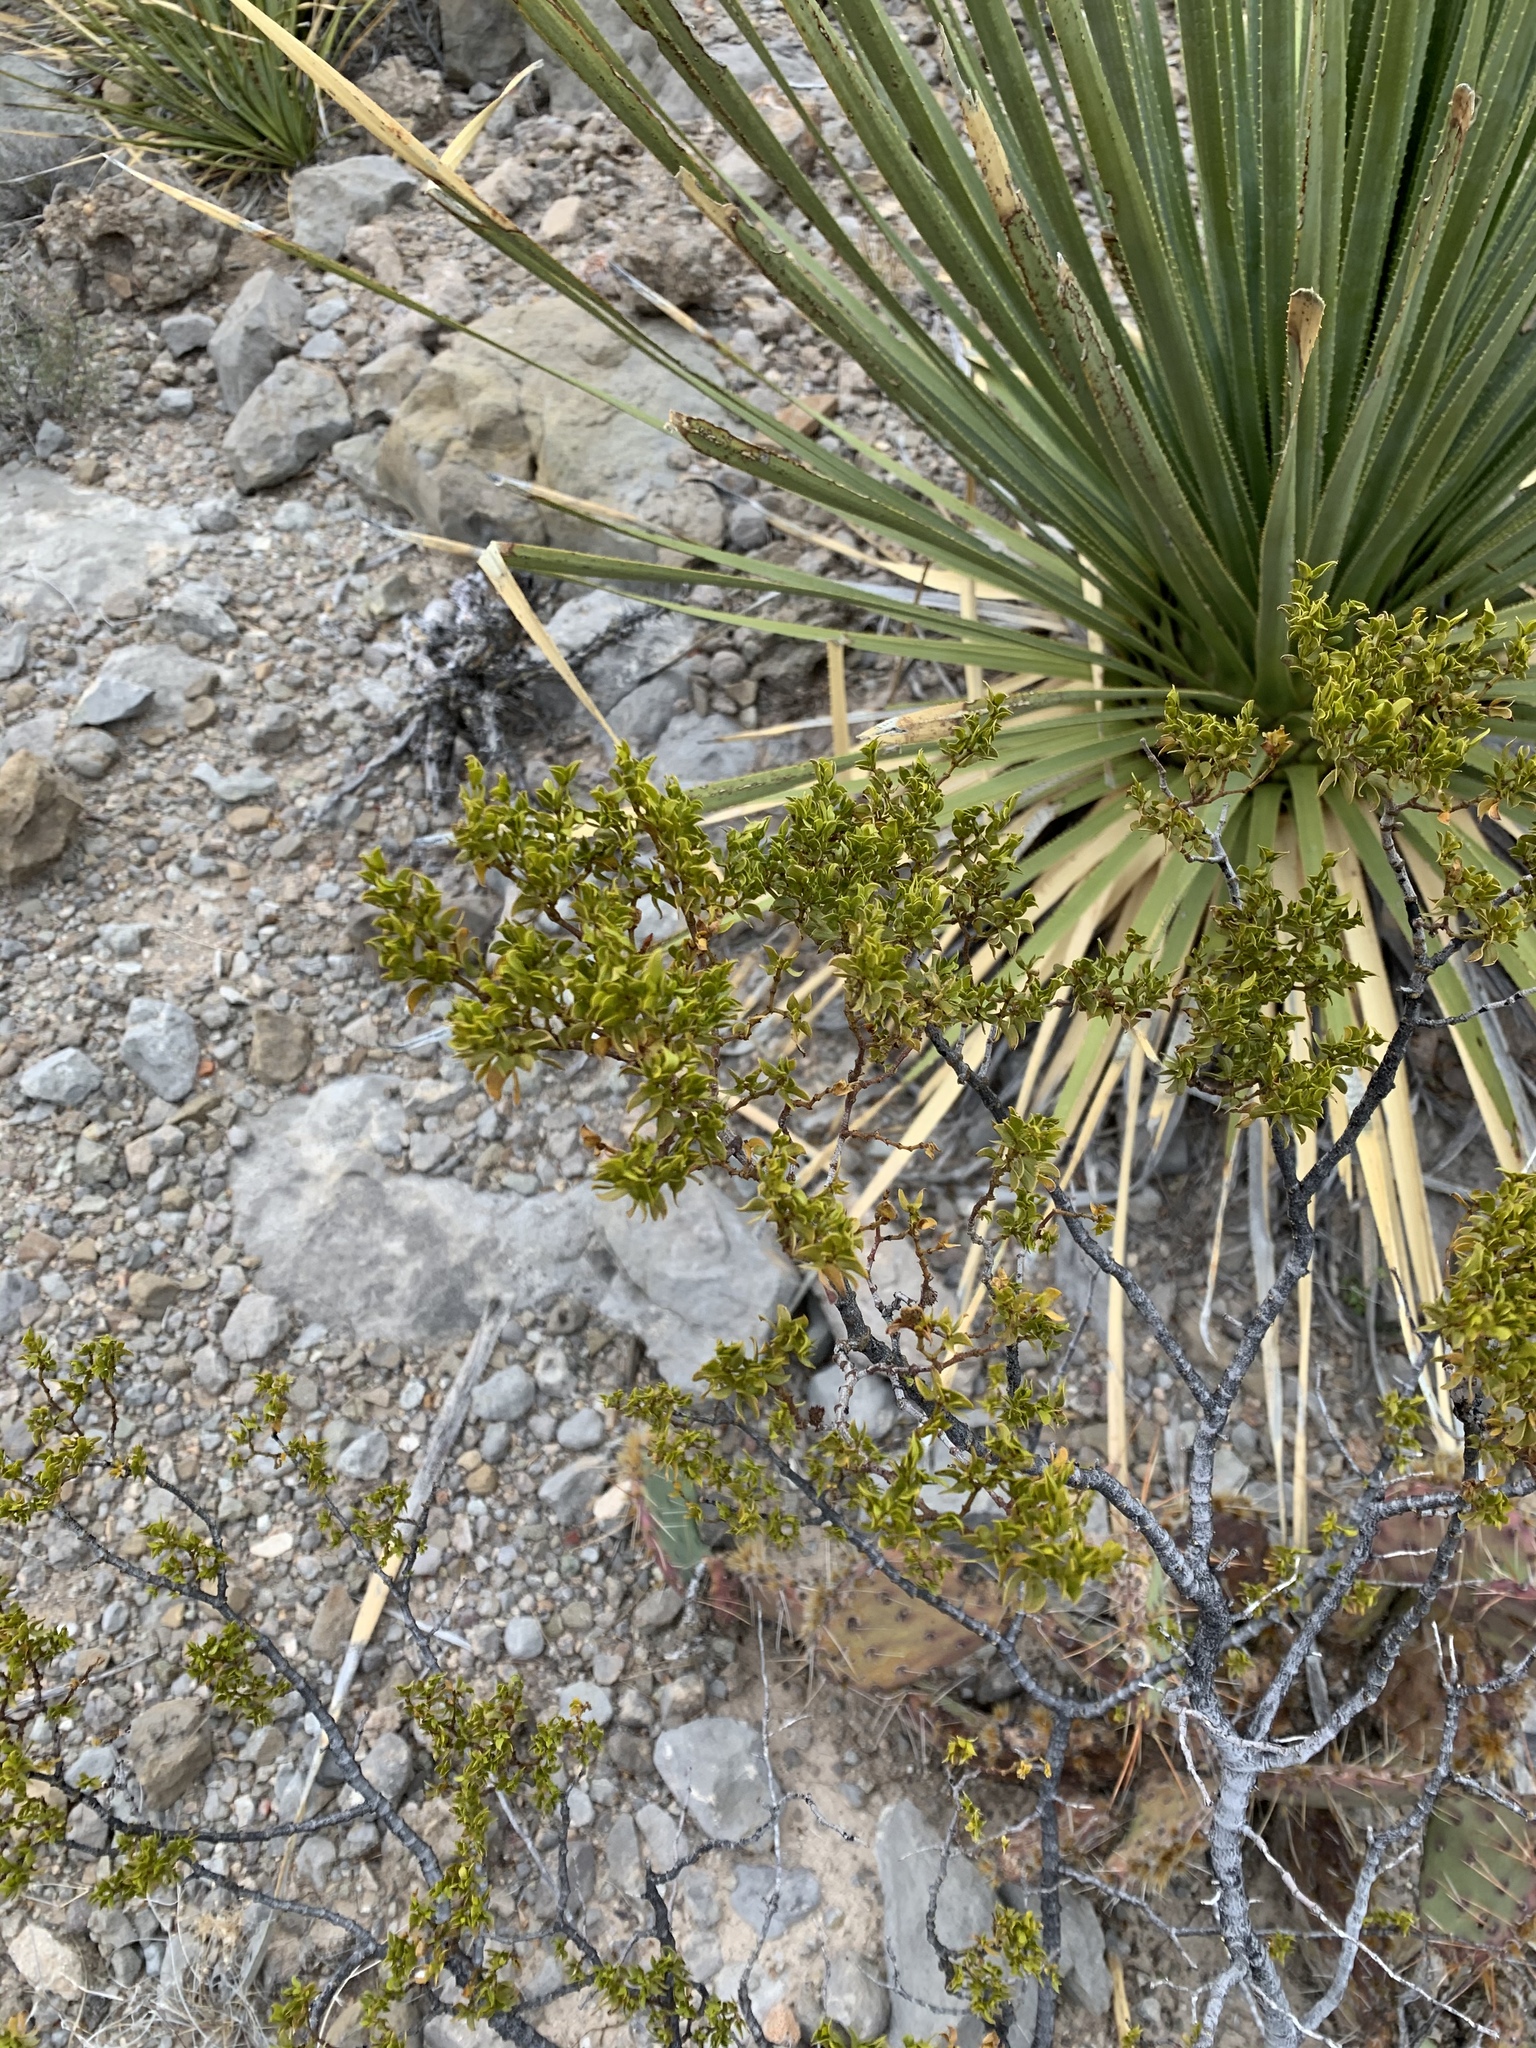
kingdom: Plantae
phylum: Tracheophyta
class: Magnoliopsida
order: Zygophyllales
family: Zygophyllaceae
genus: Larrea
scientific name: Larrea tridentata
